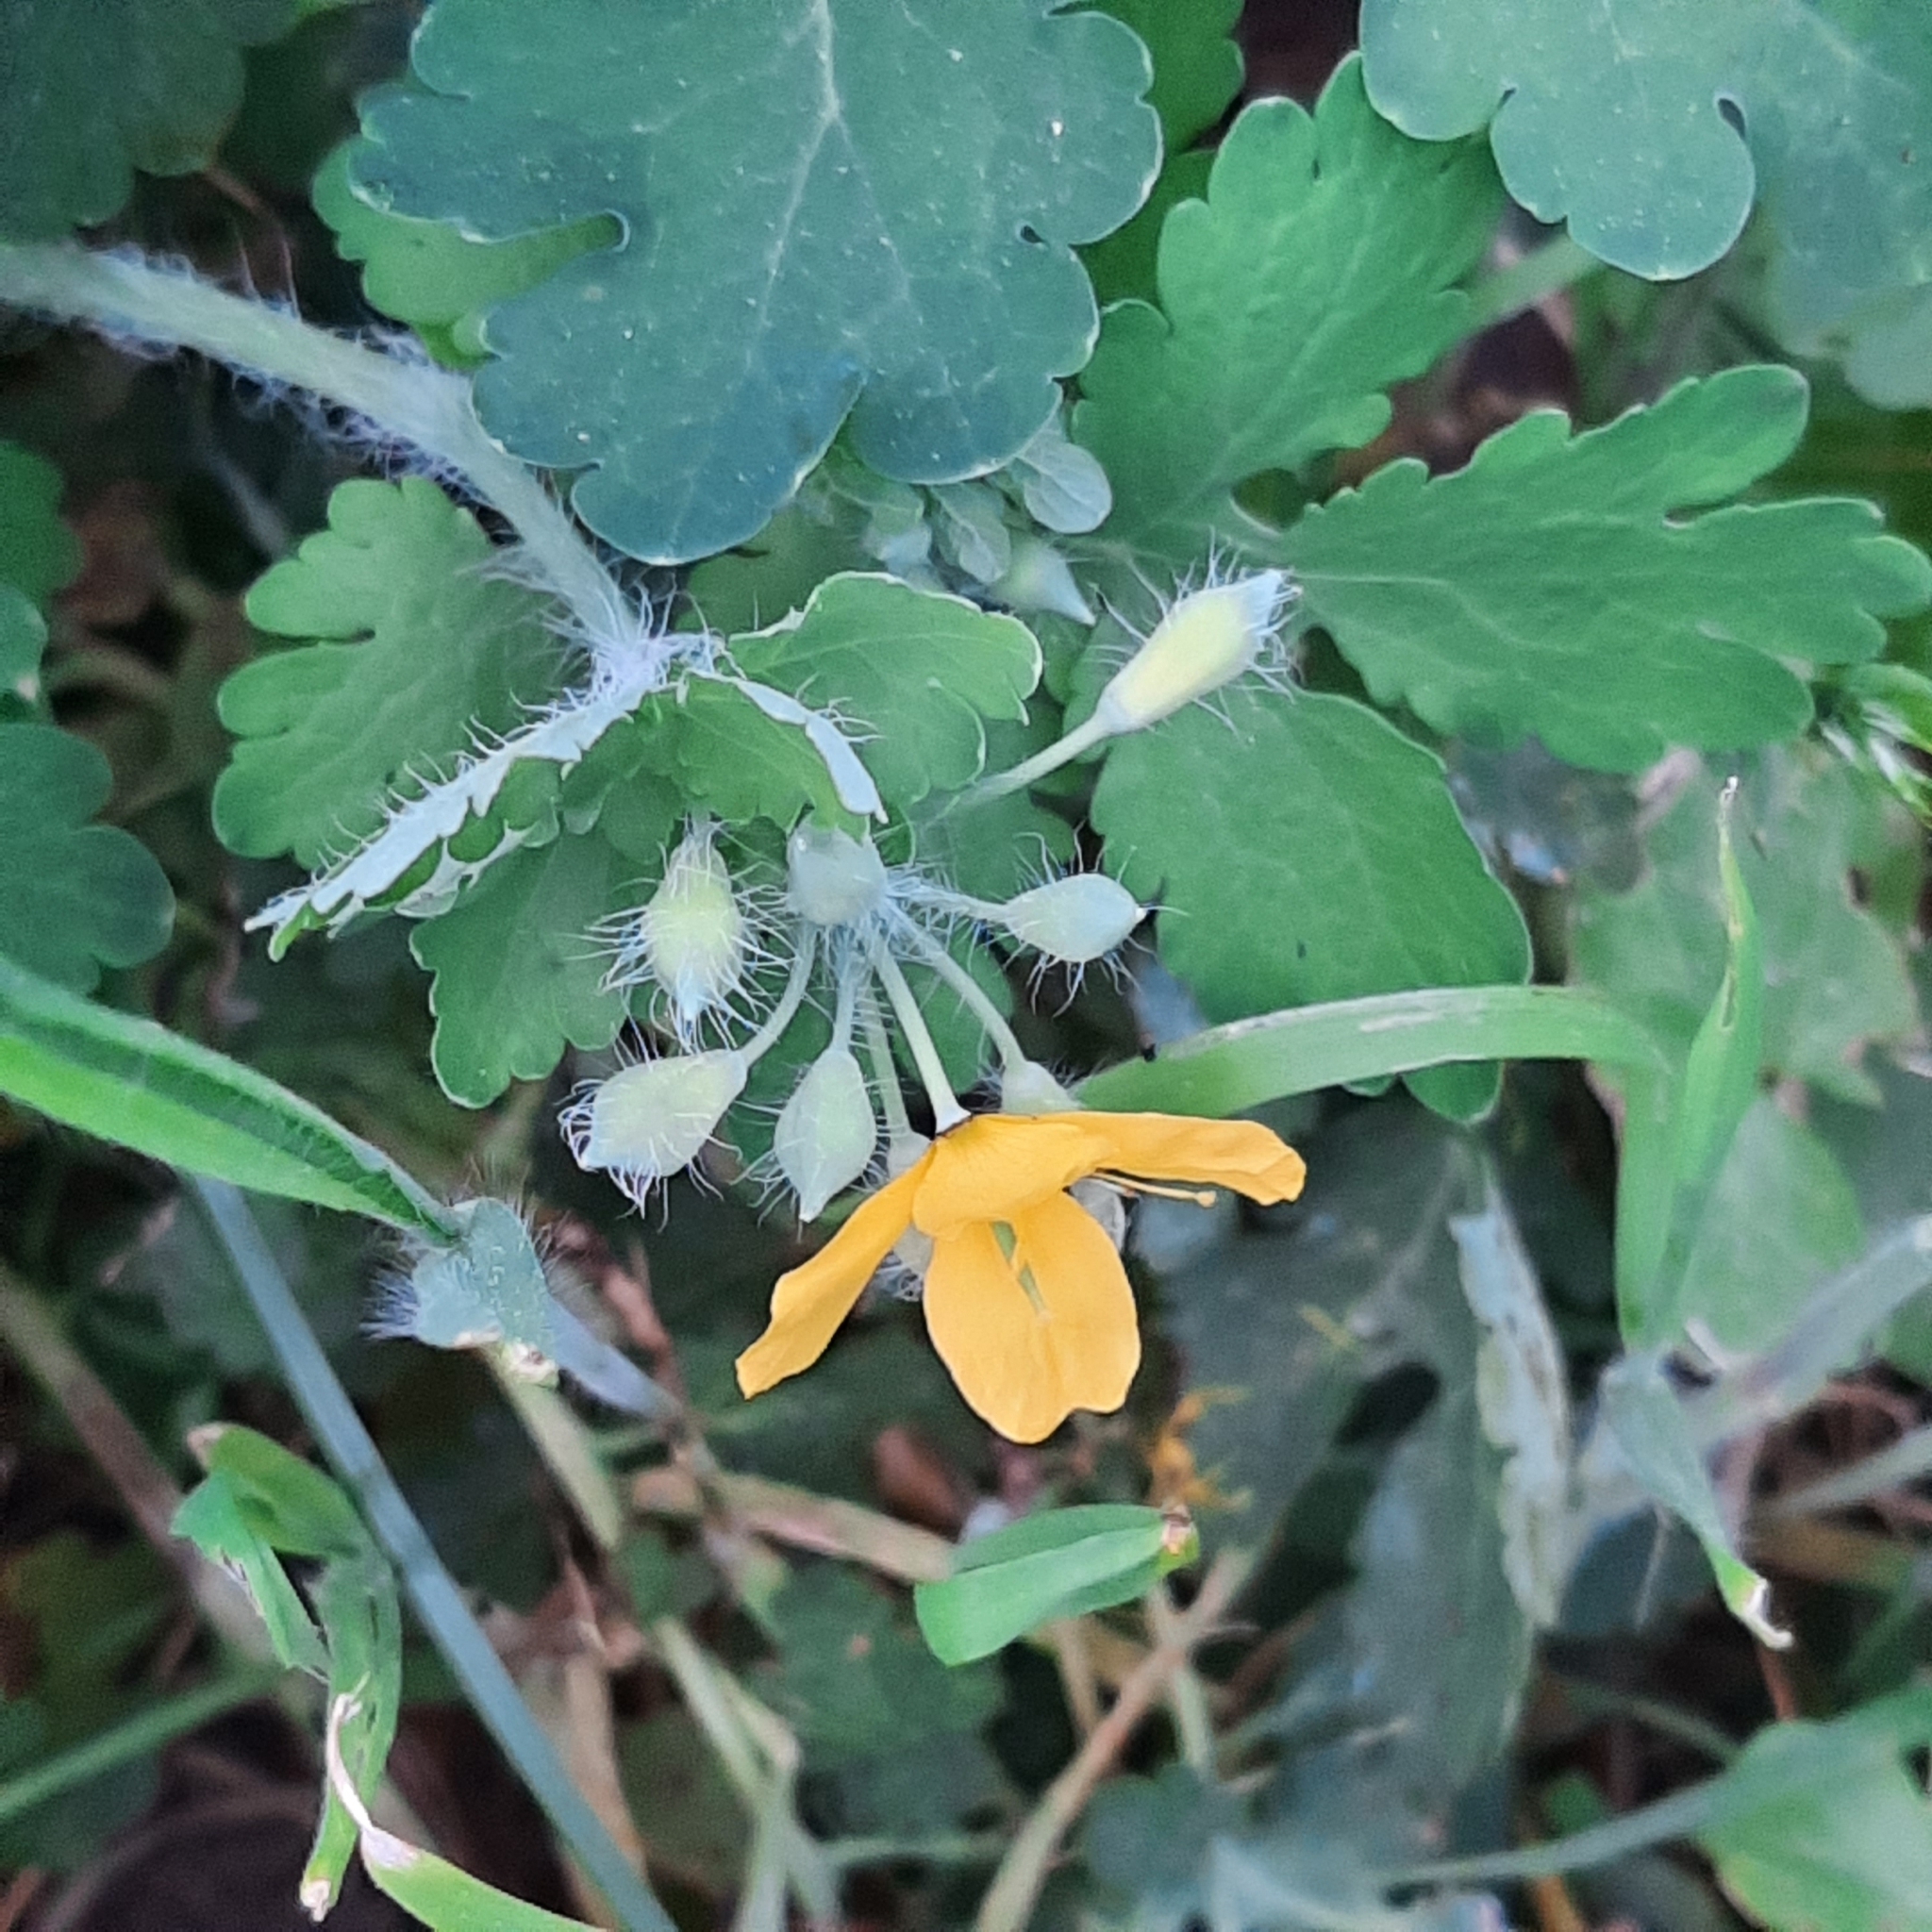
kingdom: Plantae
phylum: Tracheophyta
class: Magnoliopsida
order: Ranunculales
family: Papaveraceae
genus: Chelidonium
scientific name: Chelidonium majus
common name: Greater celandine
